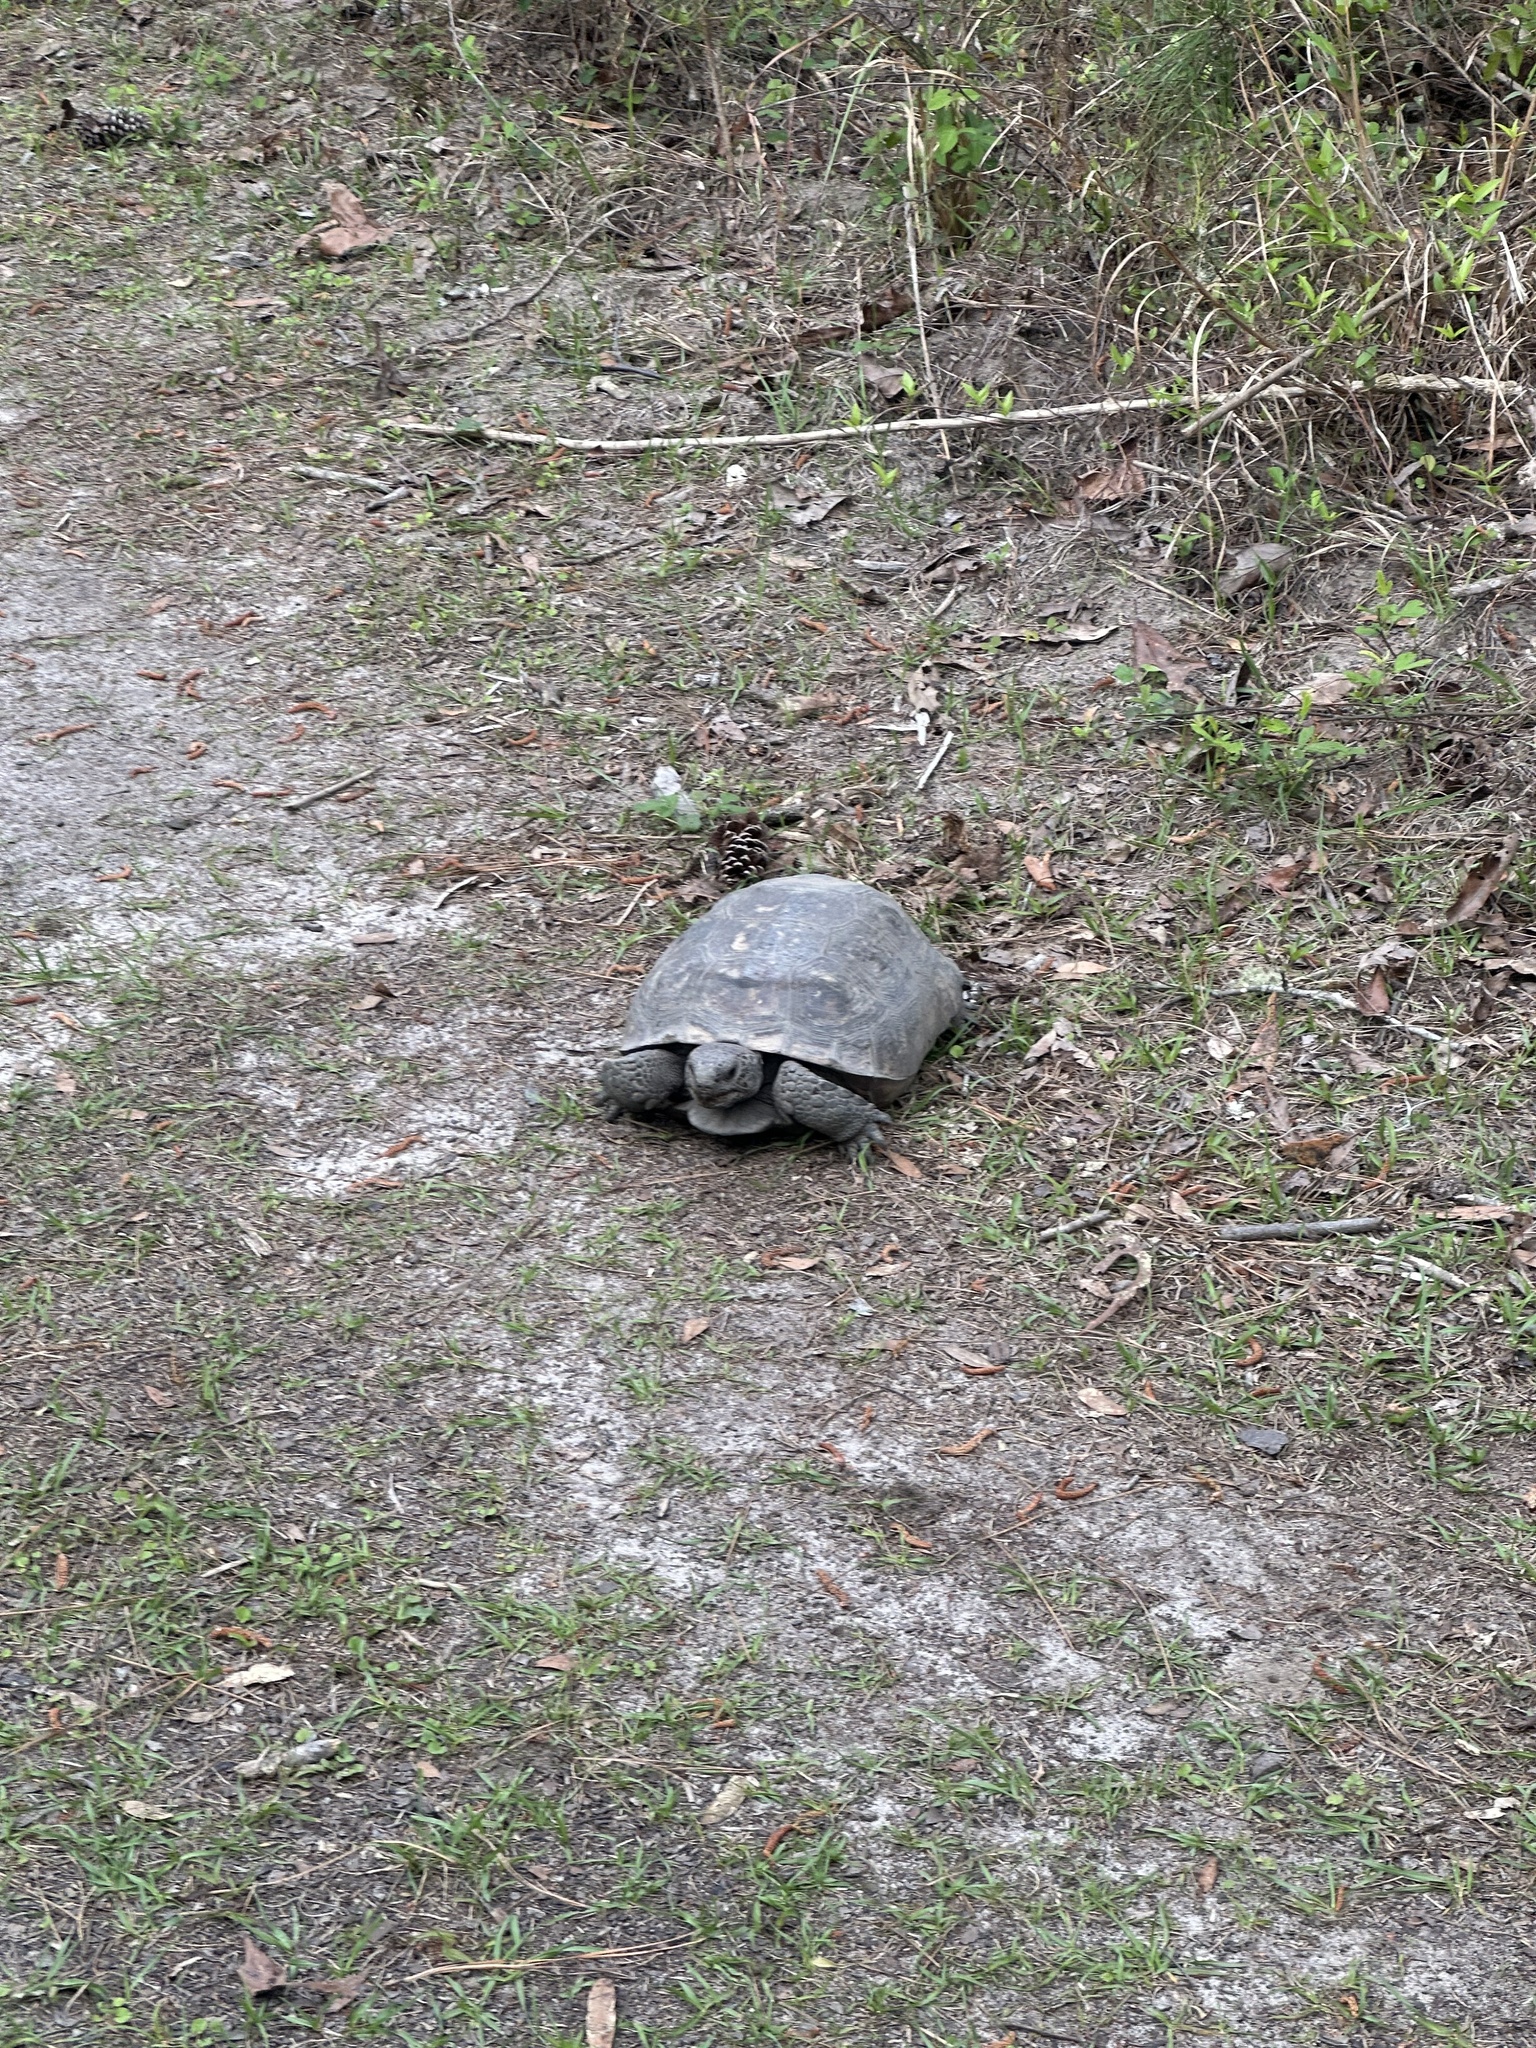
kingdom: Animalia
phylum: Chordata
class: Testudines
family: Testudinidae
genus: Gopherus
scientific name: Gopherus polyphemus
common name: Florida gopher tortoise
